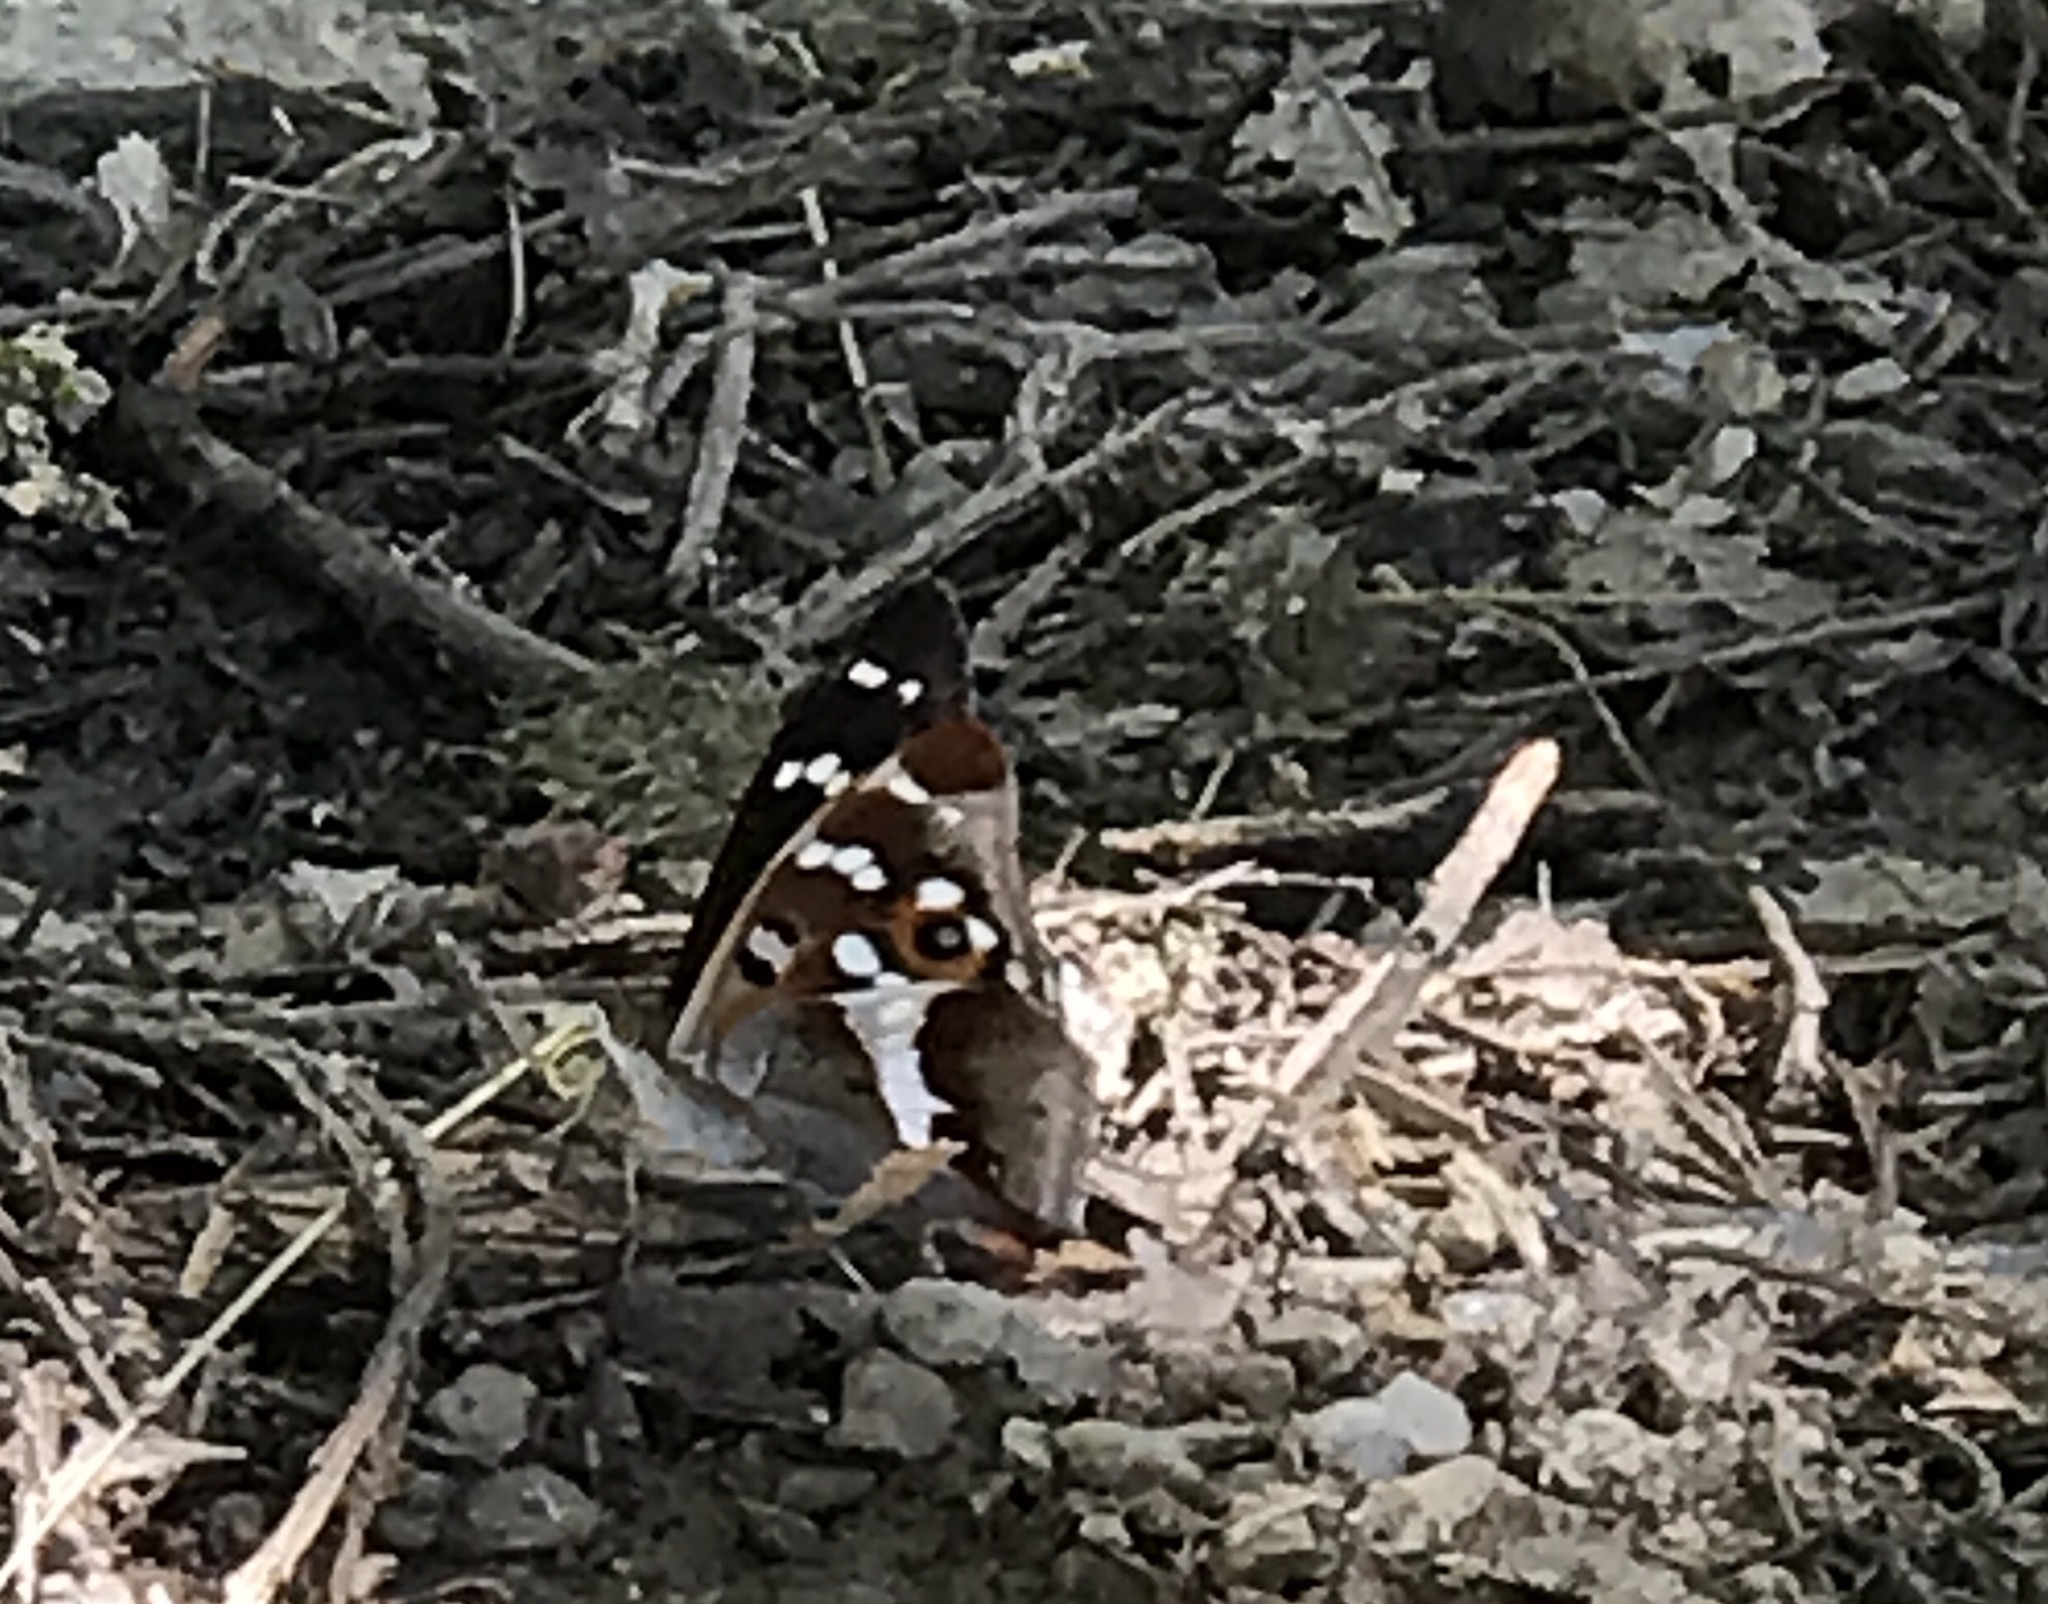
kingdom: Animalia
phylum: Arthropoda
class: Insecta
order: Lepidoptera
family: Nymphalidae
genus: Apatura
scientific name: Apatura iris
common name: Purple emperor
